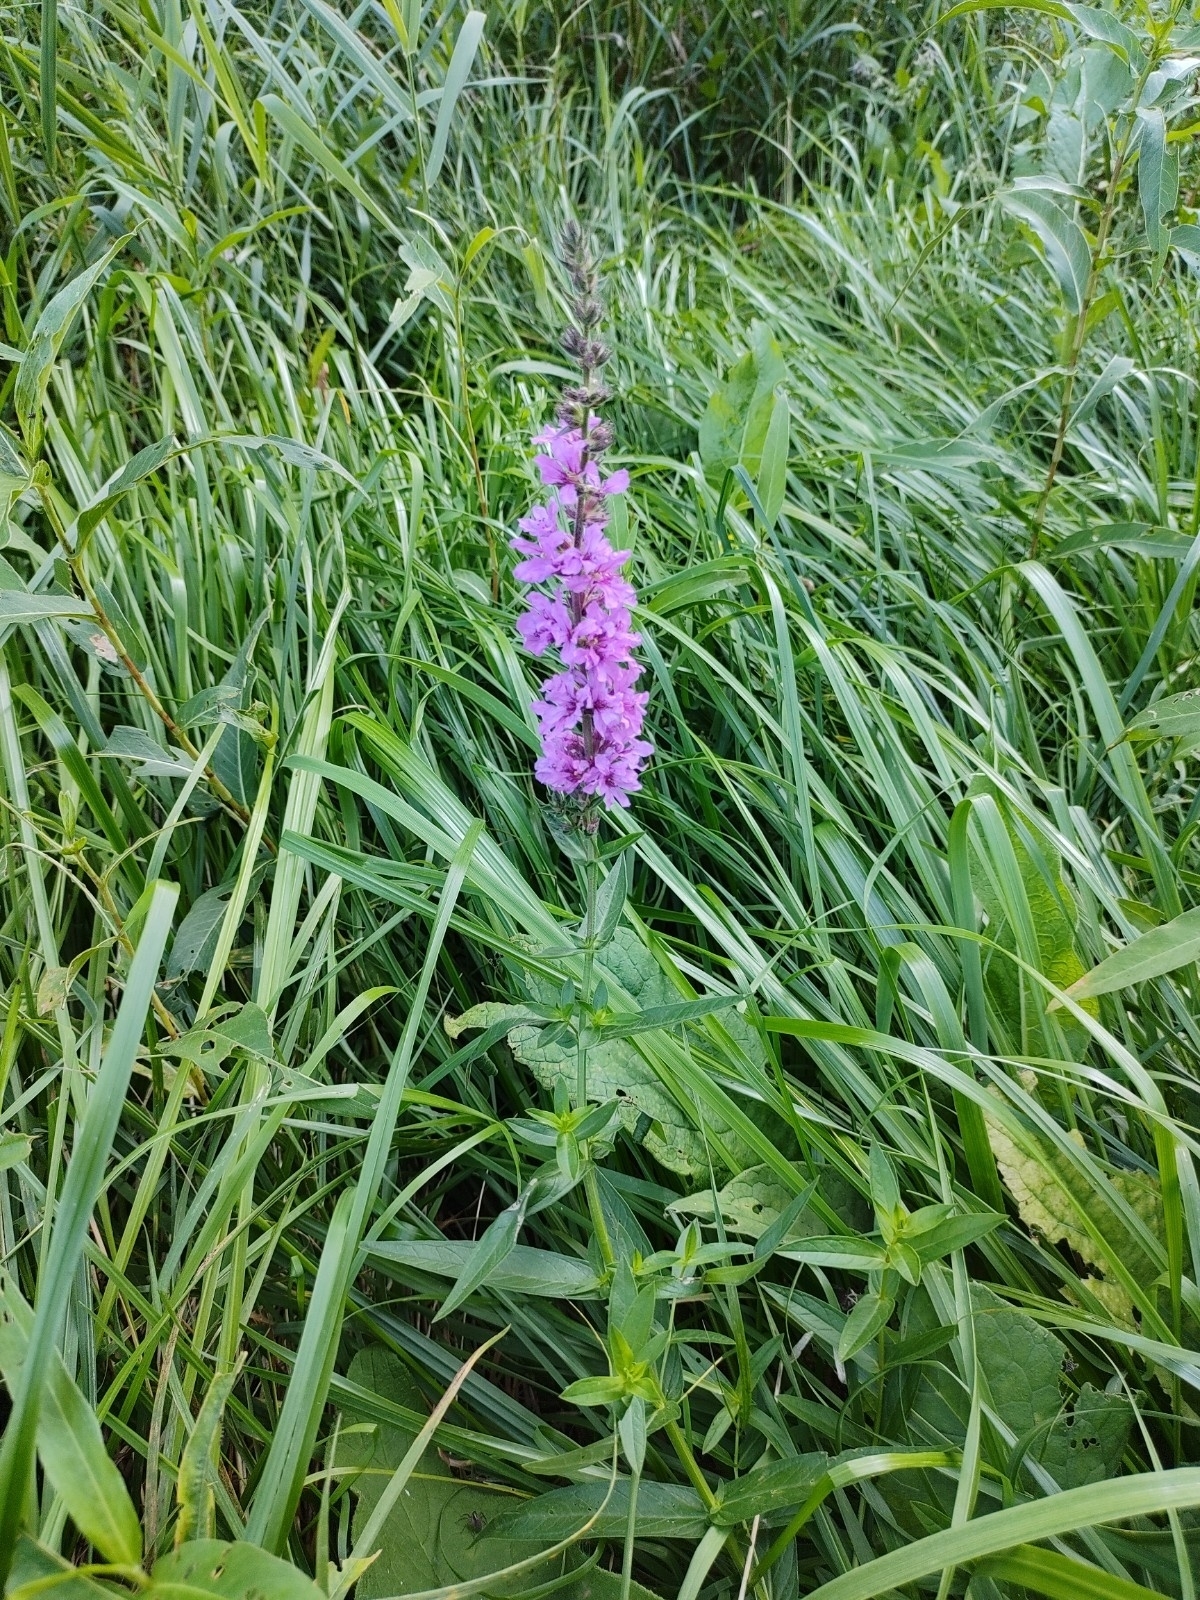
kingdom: Plantae
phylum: Tracheophyta
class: Magnoliopsida
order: Myrtales
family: Lythraceae
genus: Lythrum
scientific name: Lythrum salicaria
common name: Purple loosestrife
